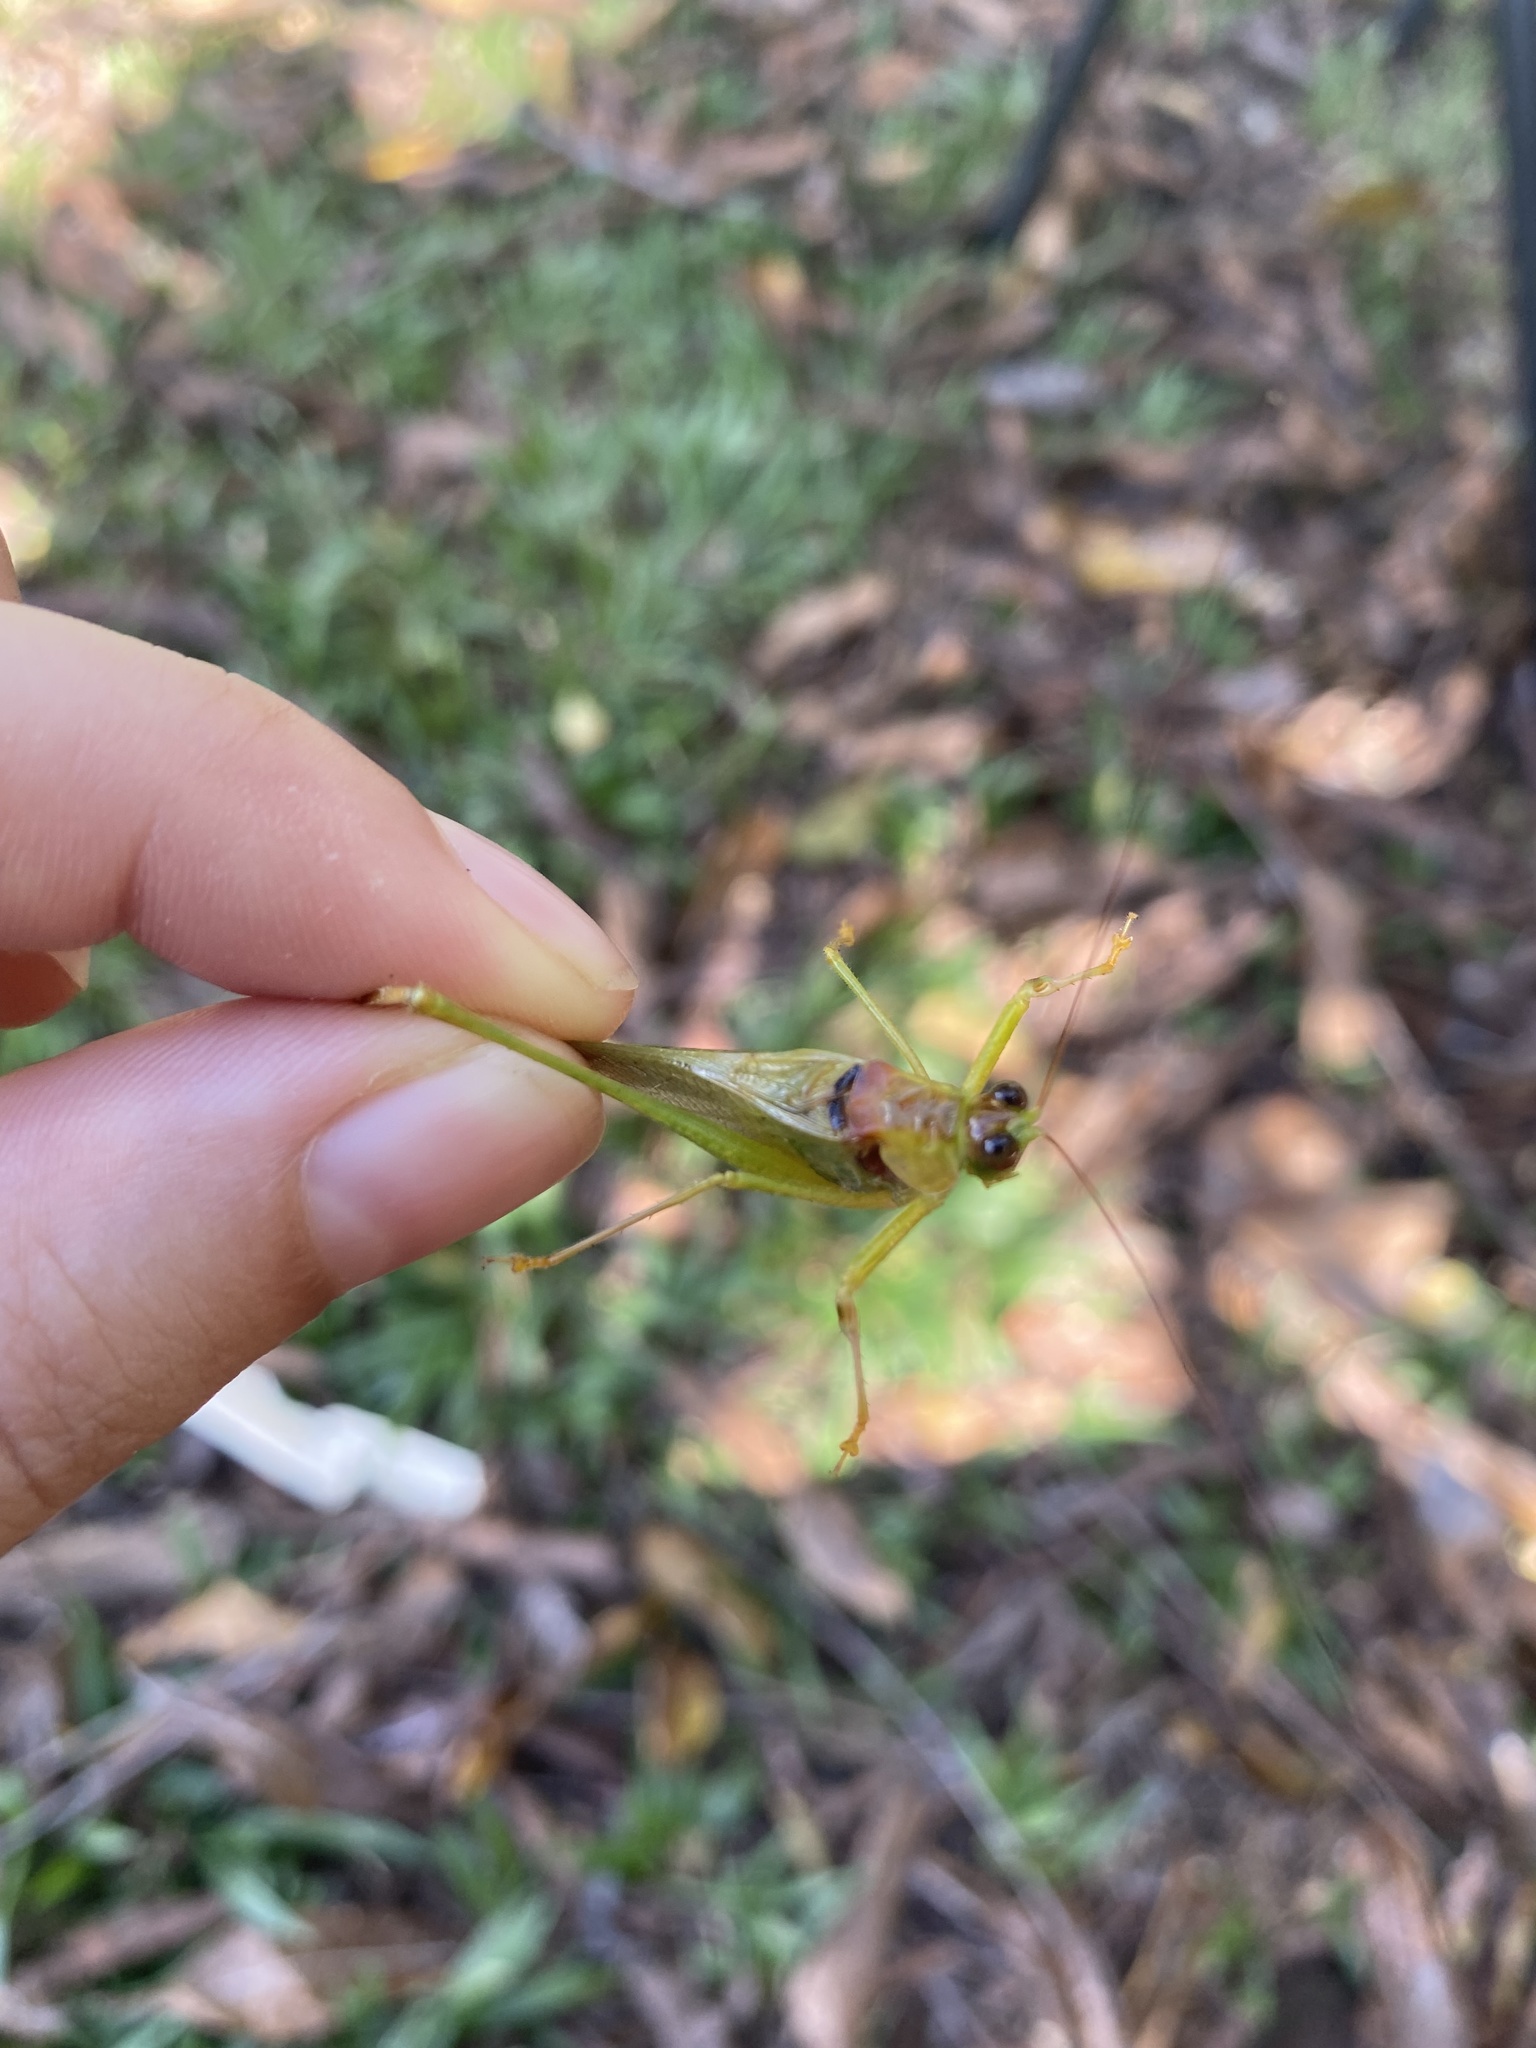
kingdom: Animalia
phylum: Arthropoda
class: Insecta
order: Orthoptera
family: Tettigoniidae
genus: Euceraia
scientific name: Euceraia atryx
